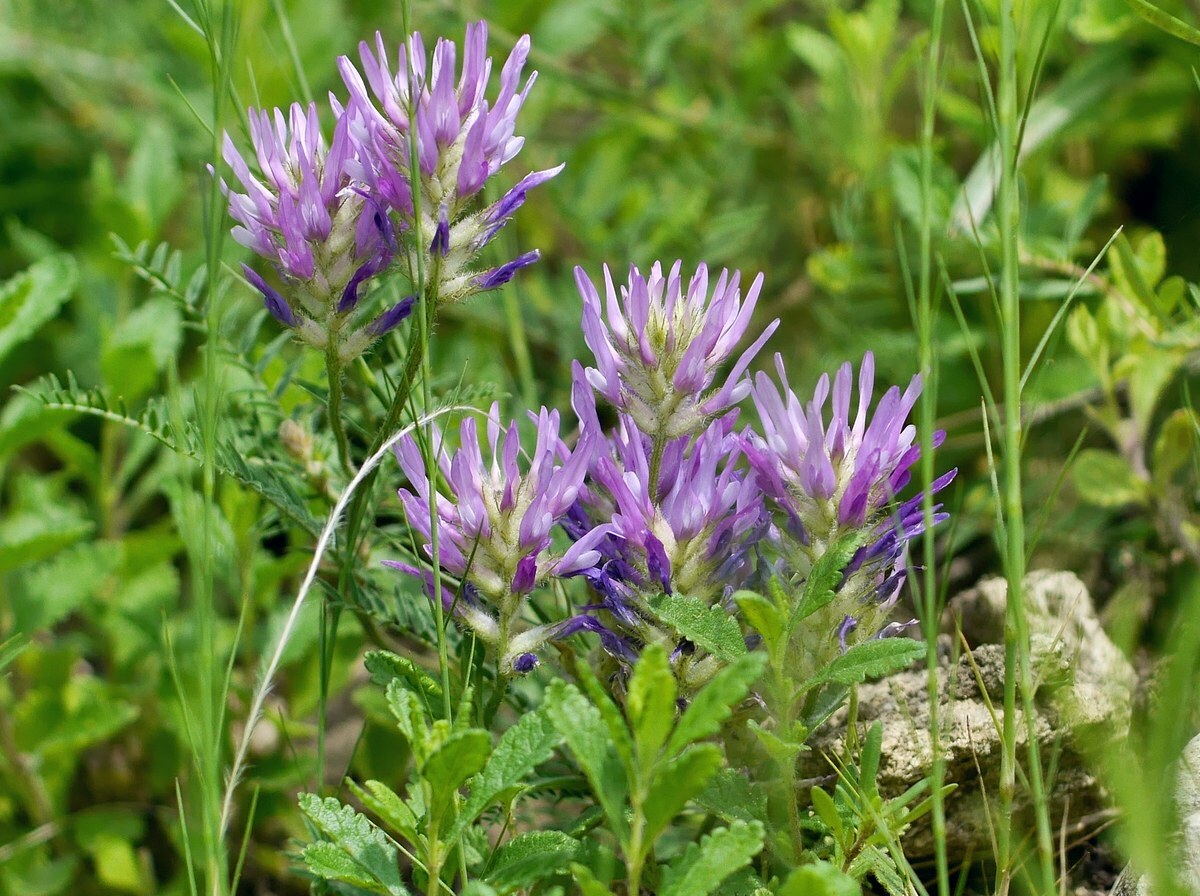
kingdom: Plantae
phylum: Tracheophyta
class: Magnoliopsida
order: Fabales
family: Fabaceae
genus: Astragalus
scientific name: Astragalus onobrychis
